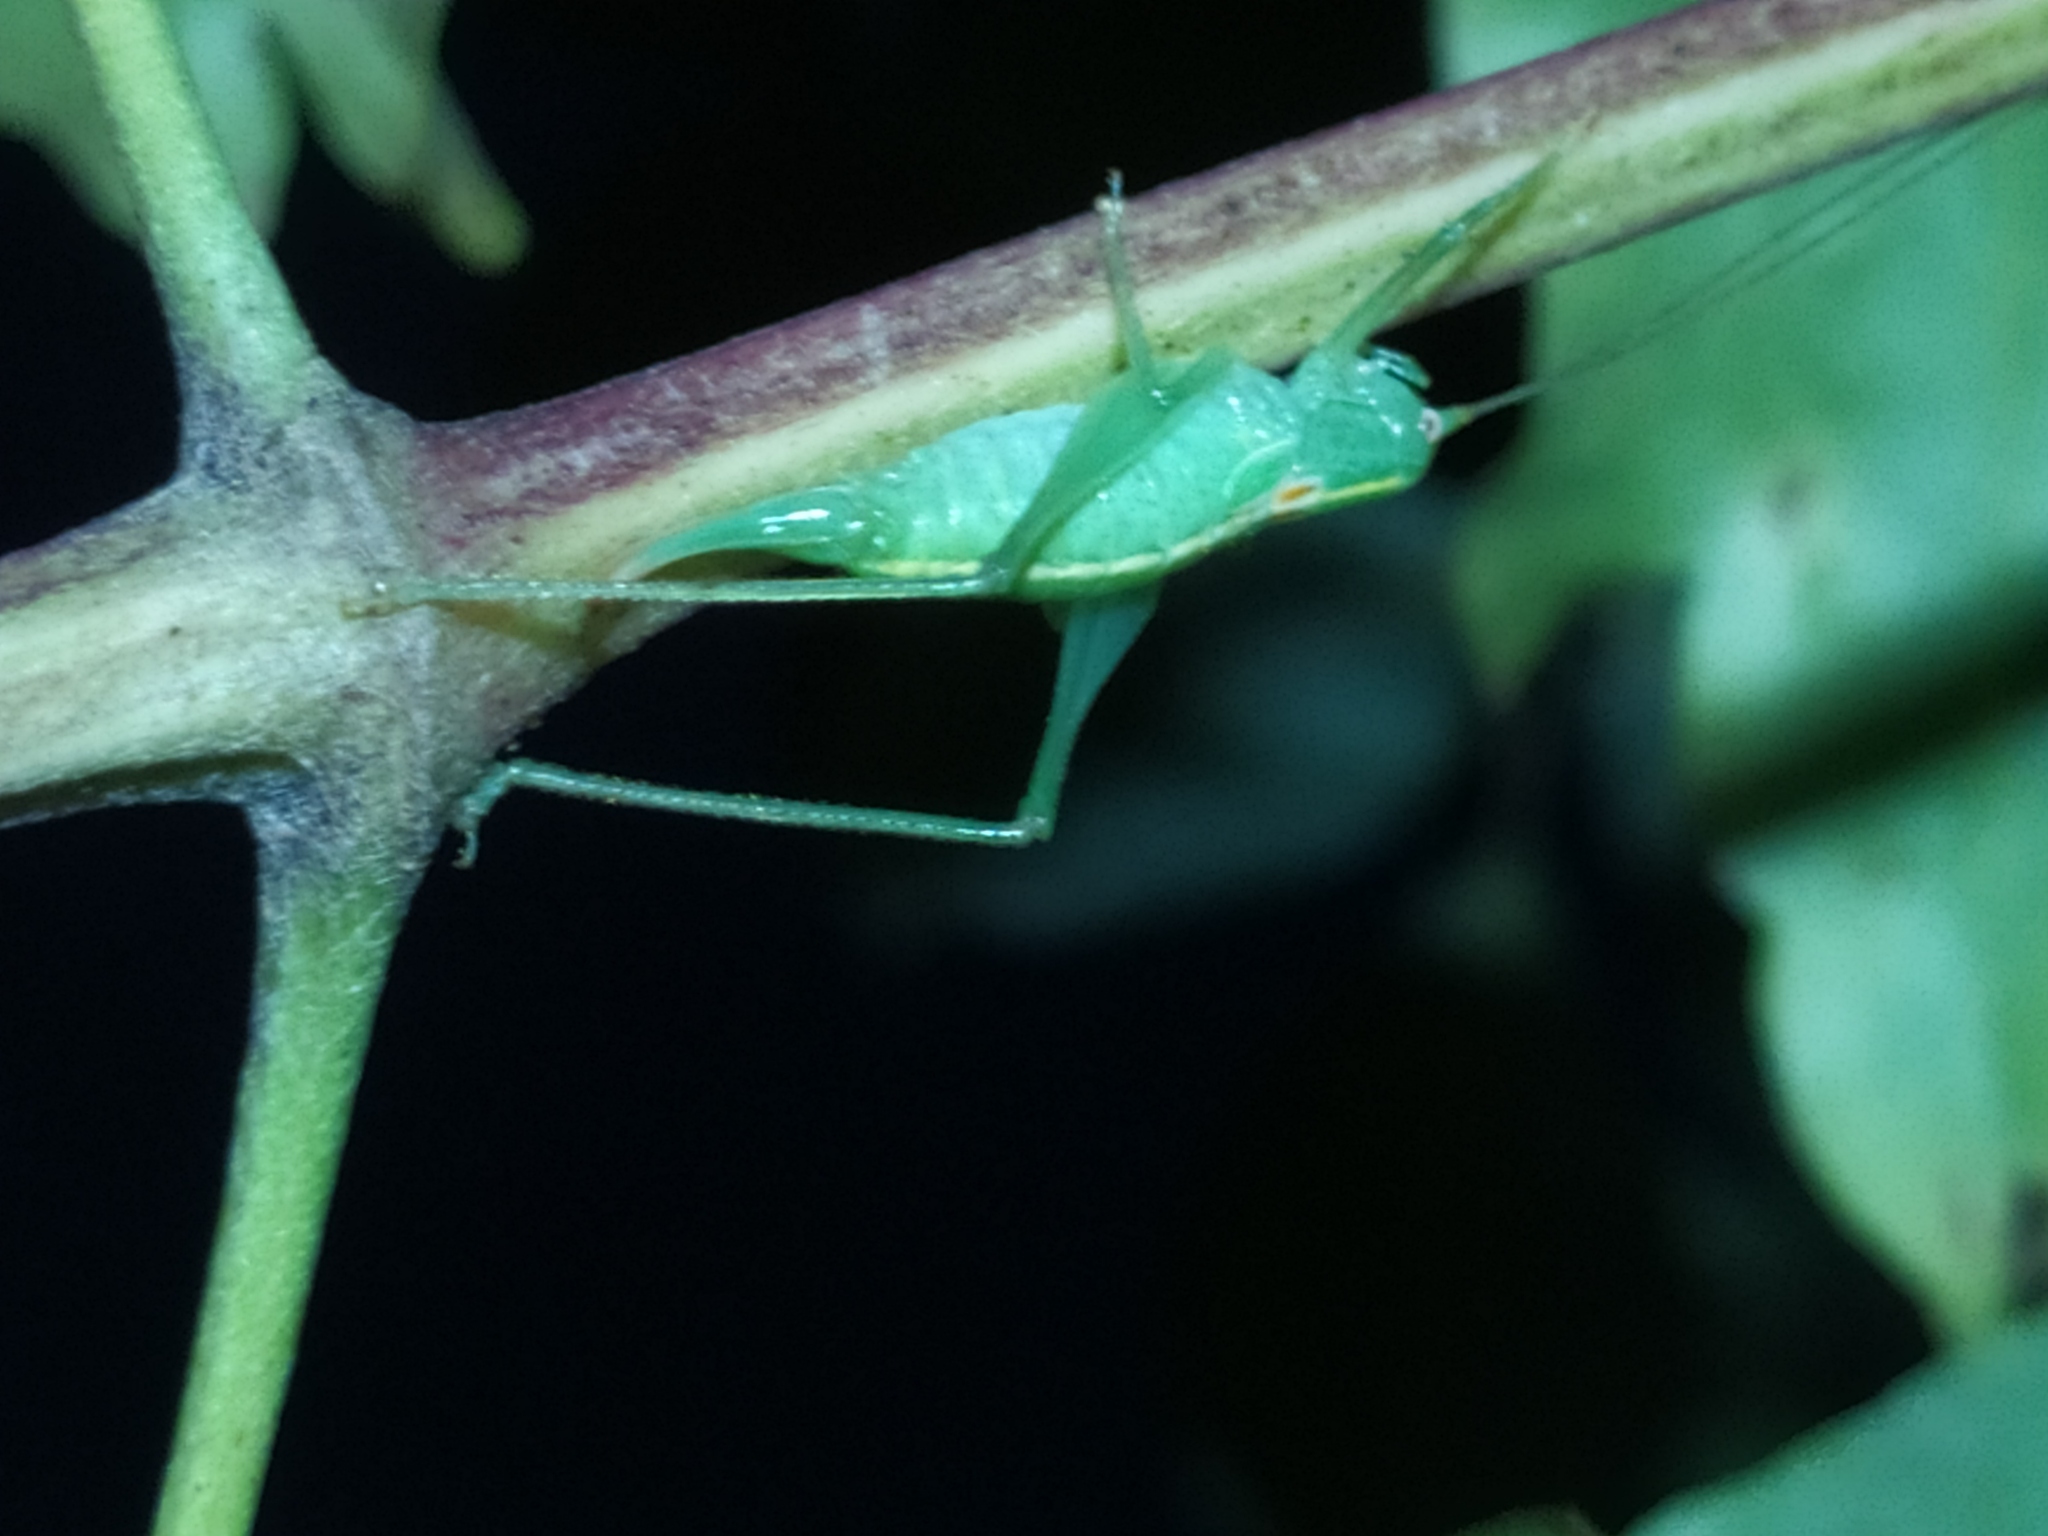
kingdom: Animalia
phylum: Arthropoda
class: Insecta
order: Orthoptera
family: Tettigoniidae
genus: Meconema
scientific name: Meconema meridionale
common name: Southern oak bush-cricket
